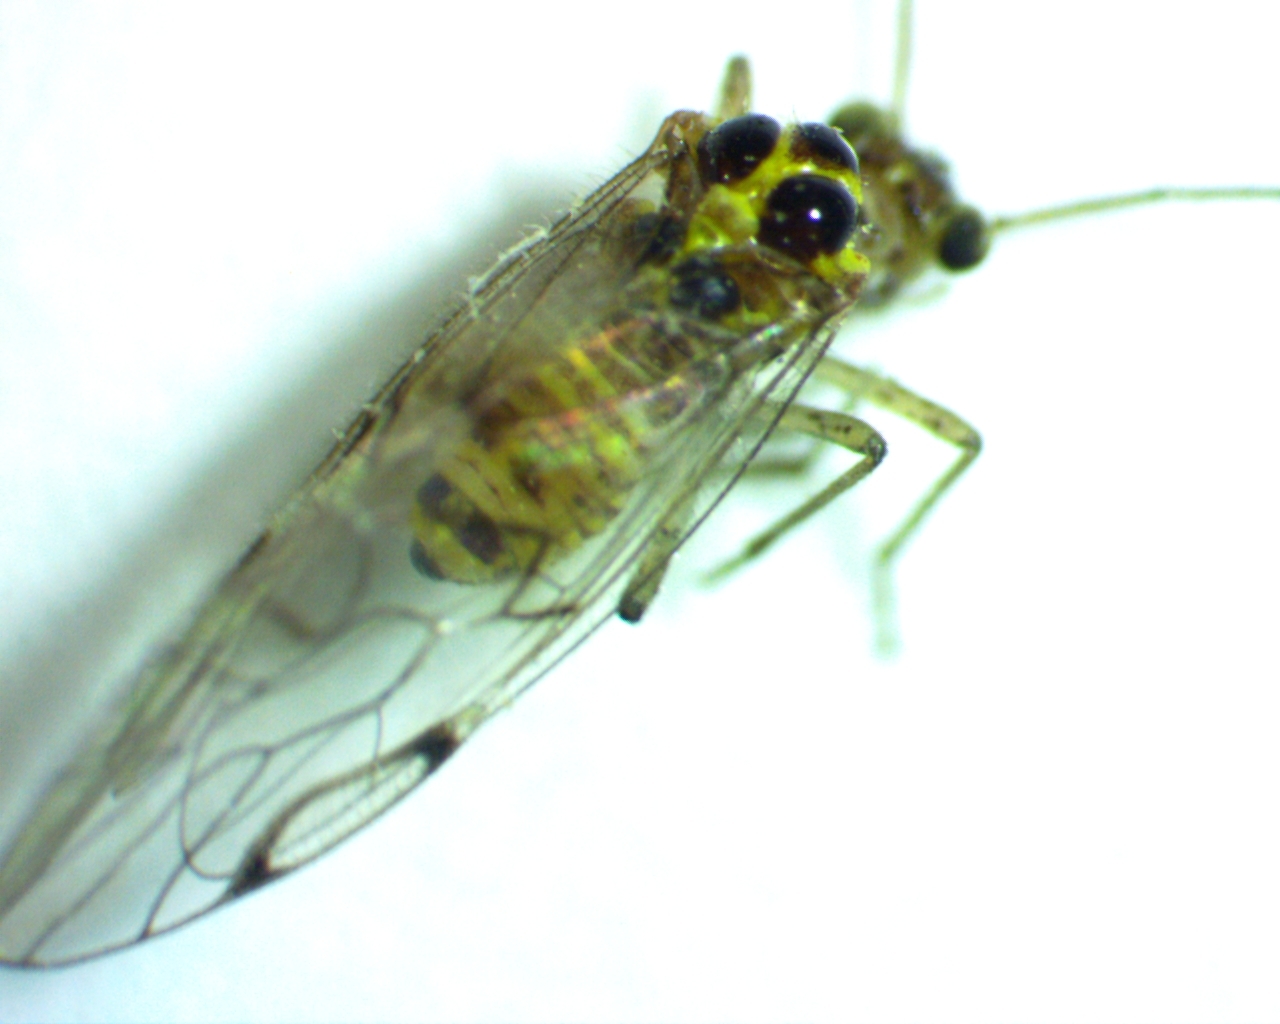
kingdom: Animalia
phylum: Arthropoda
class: Insecta
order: Psocodea
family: Dasydemellidae
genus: Teliapsocus
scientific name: Teliapsocus conterminus
